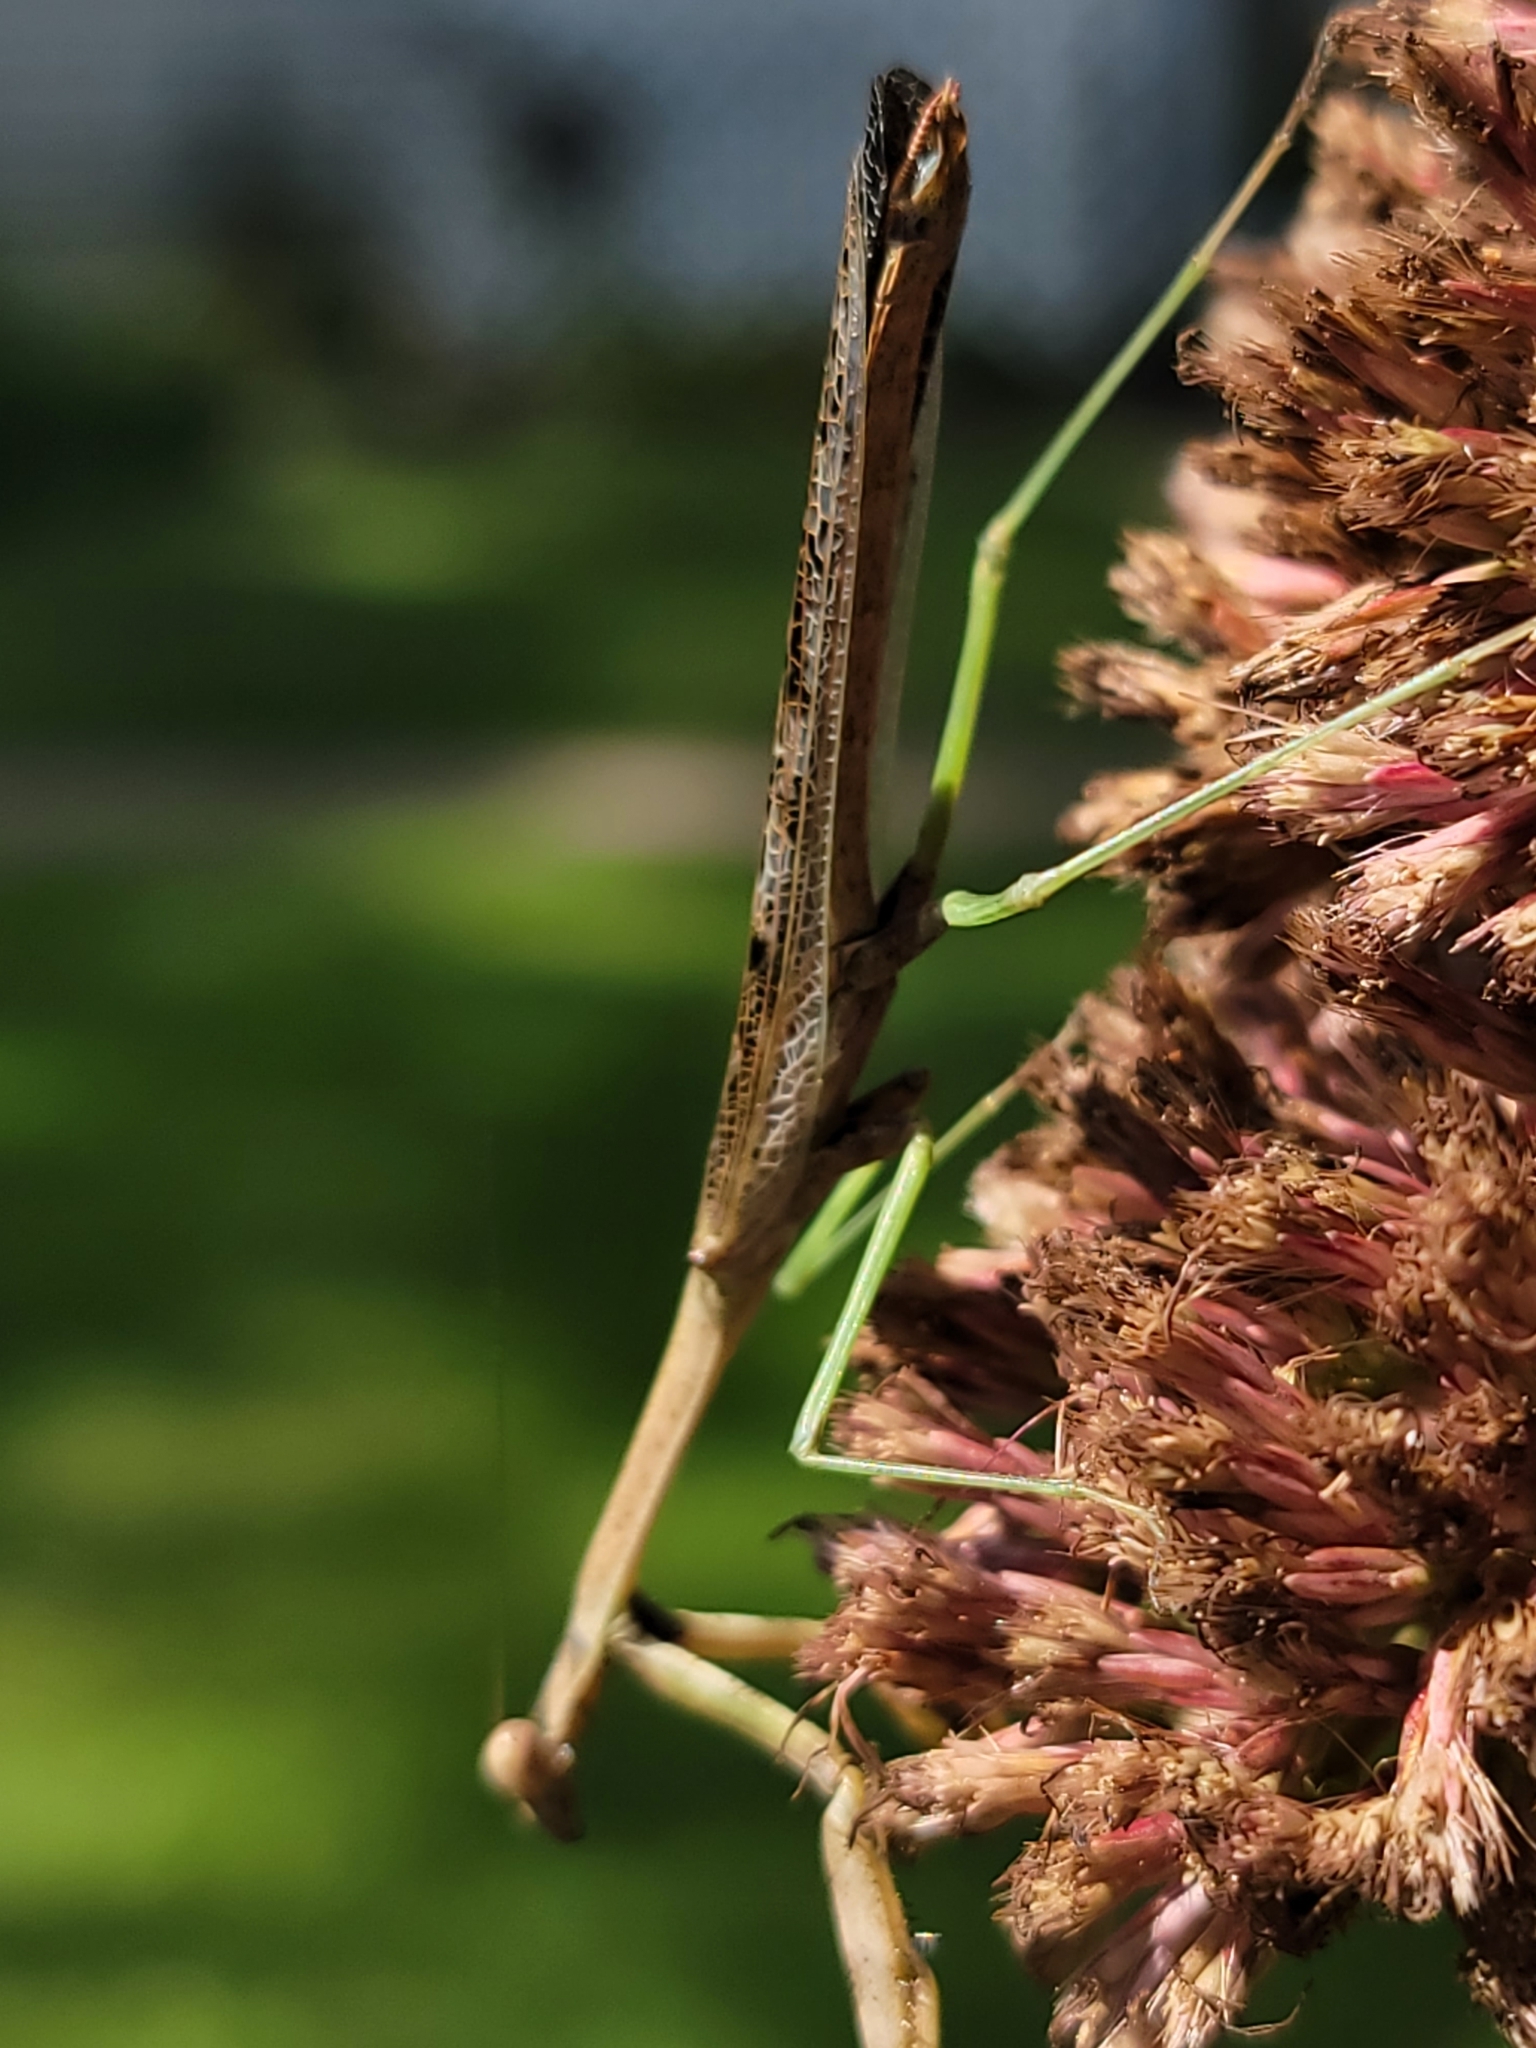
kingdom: Animalia
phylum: Arthropoda
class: Insecta
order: Mantodea
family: Mantidae
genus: Stagmomantis
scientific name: Stagmomantis carolina
